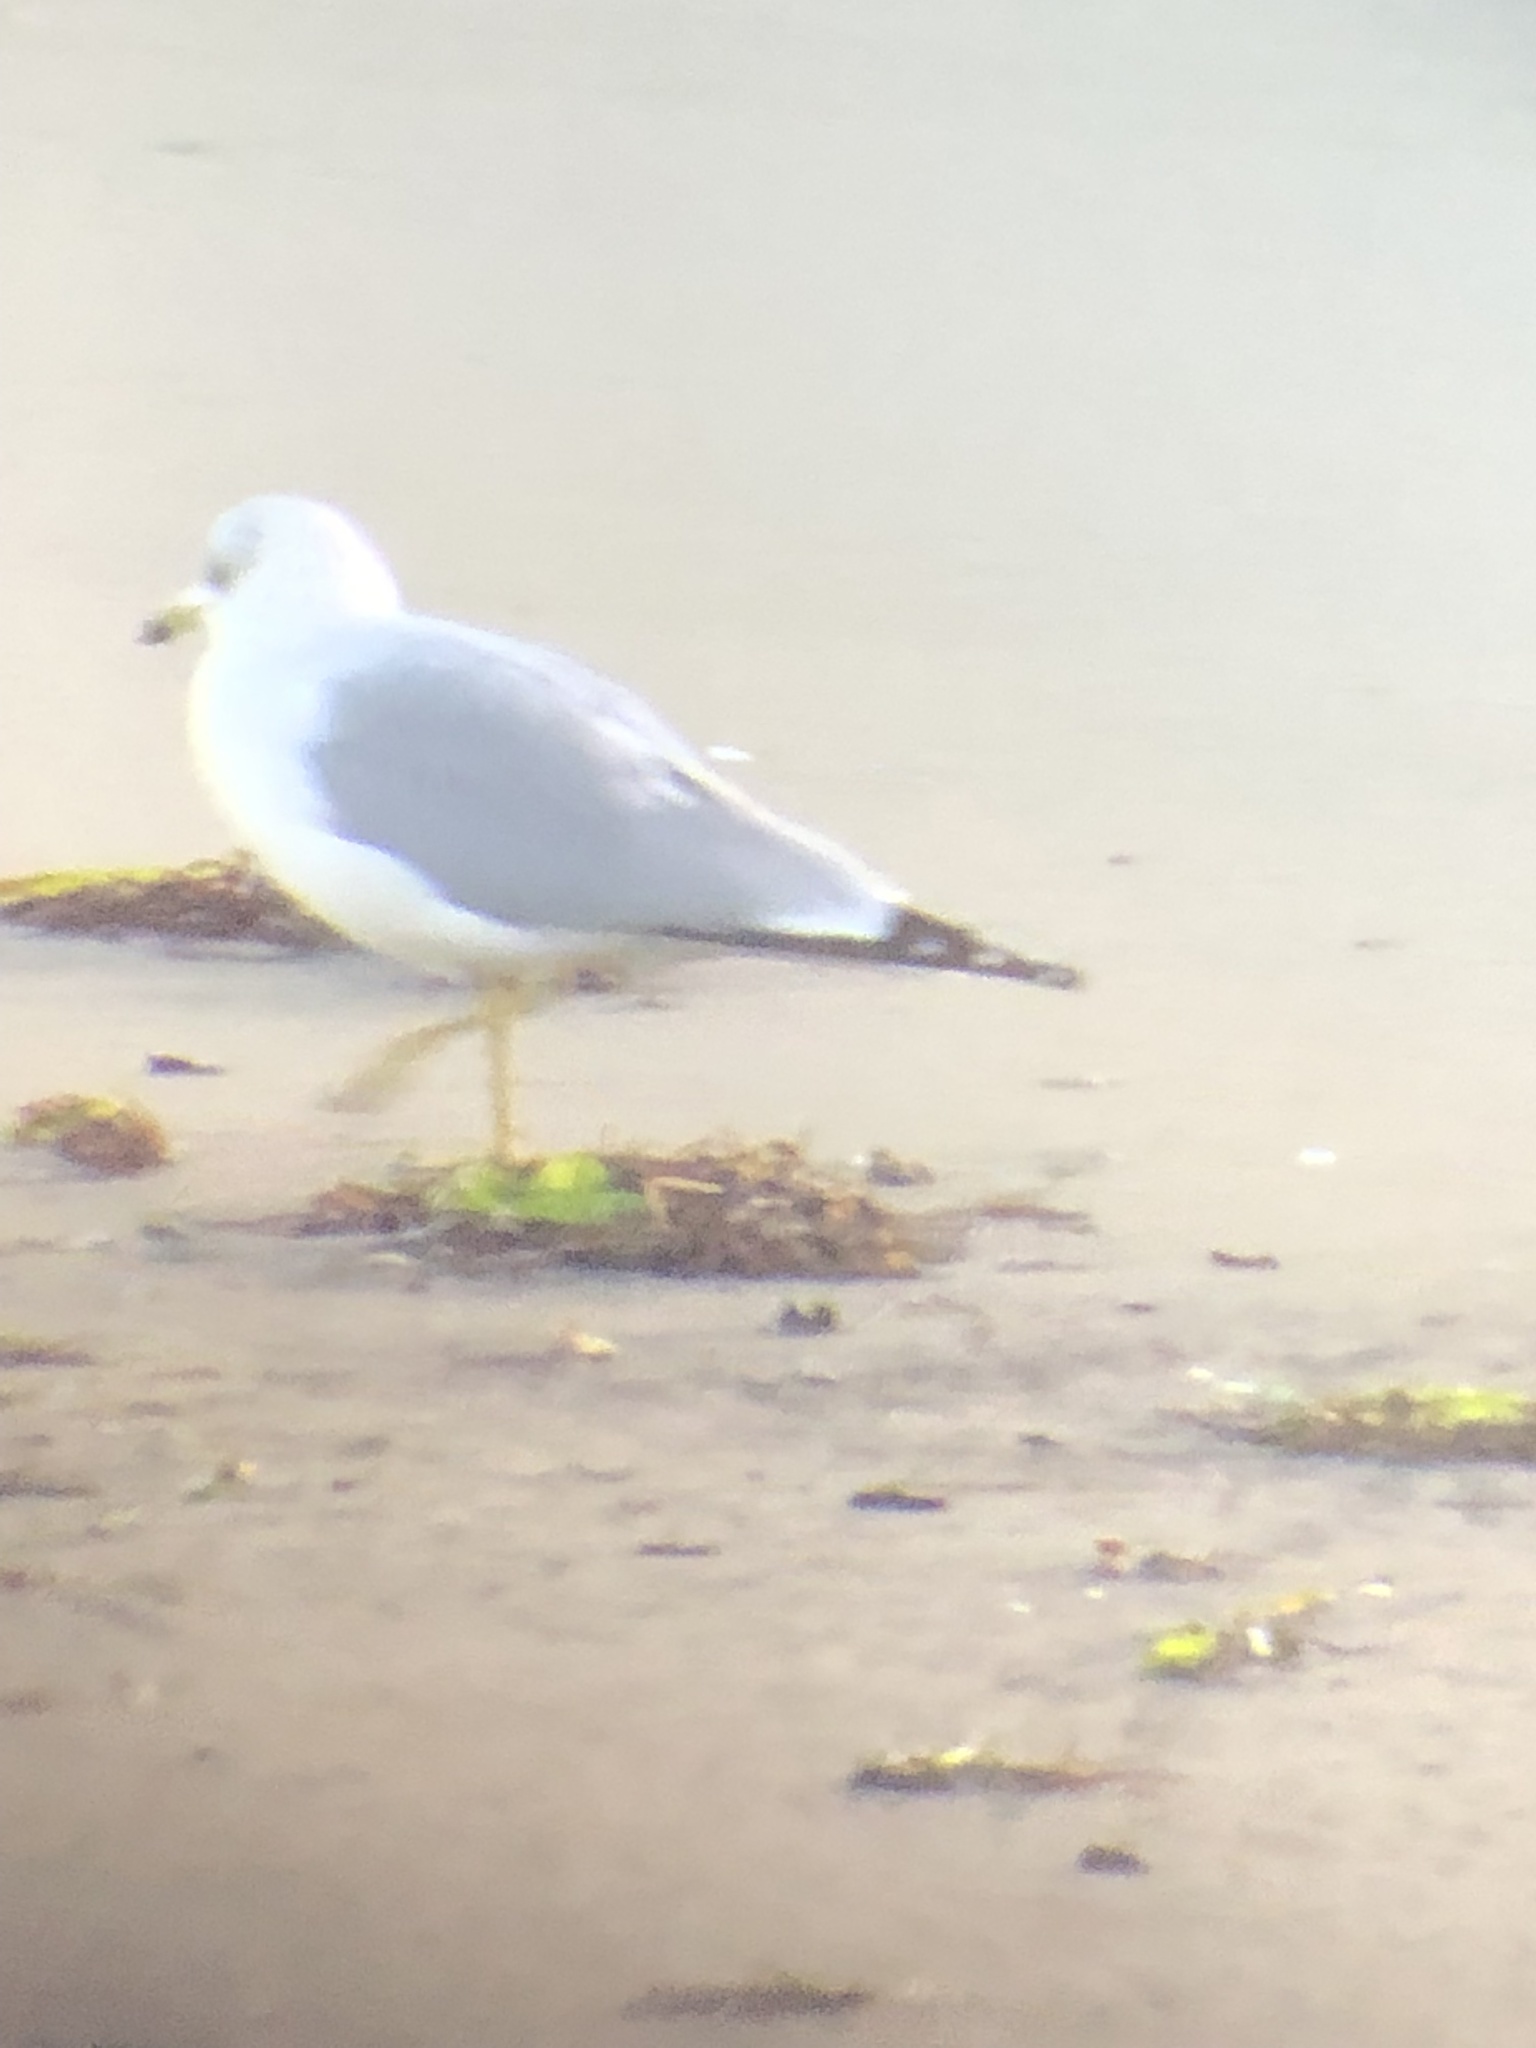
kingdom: Animalia
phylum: Chordata
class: Aves
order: Charadriiformes
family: Laridae
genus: Larus
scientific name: Larus delawarensis
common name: Ring-billed gull
